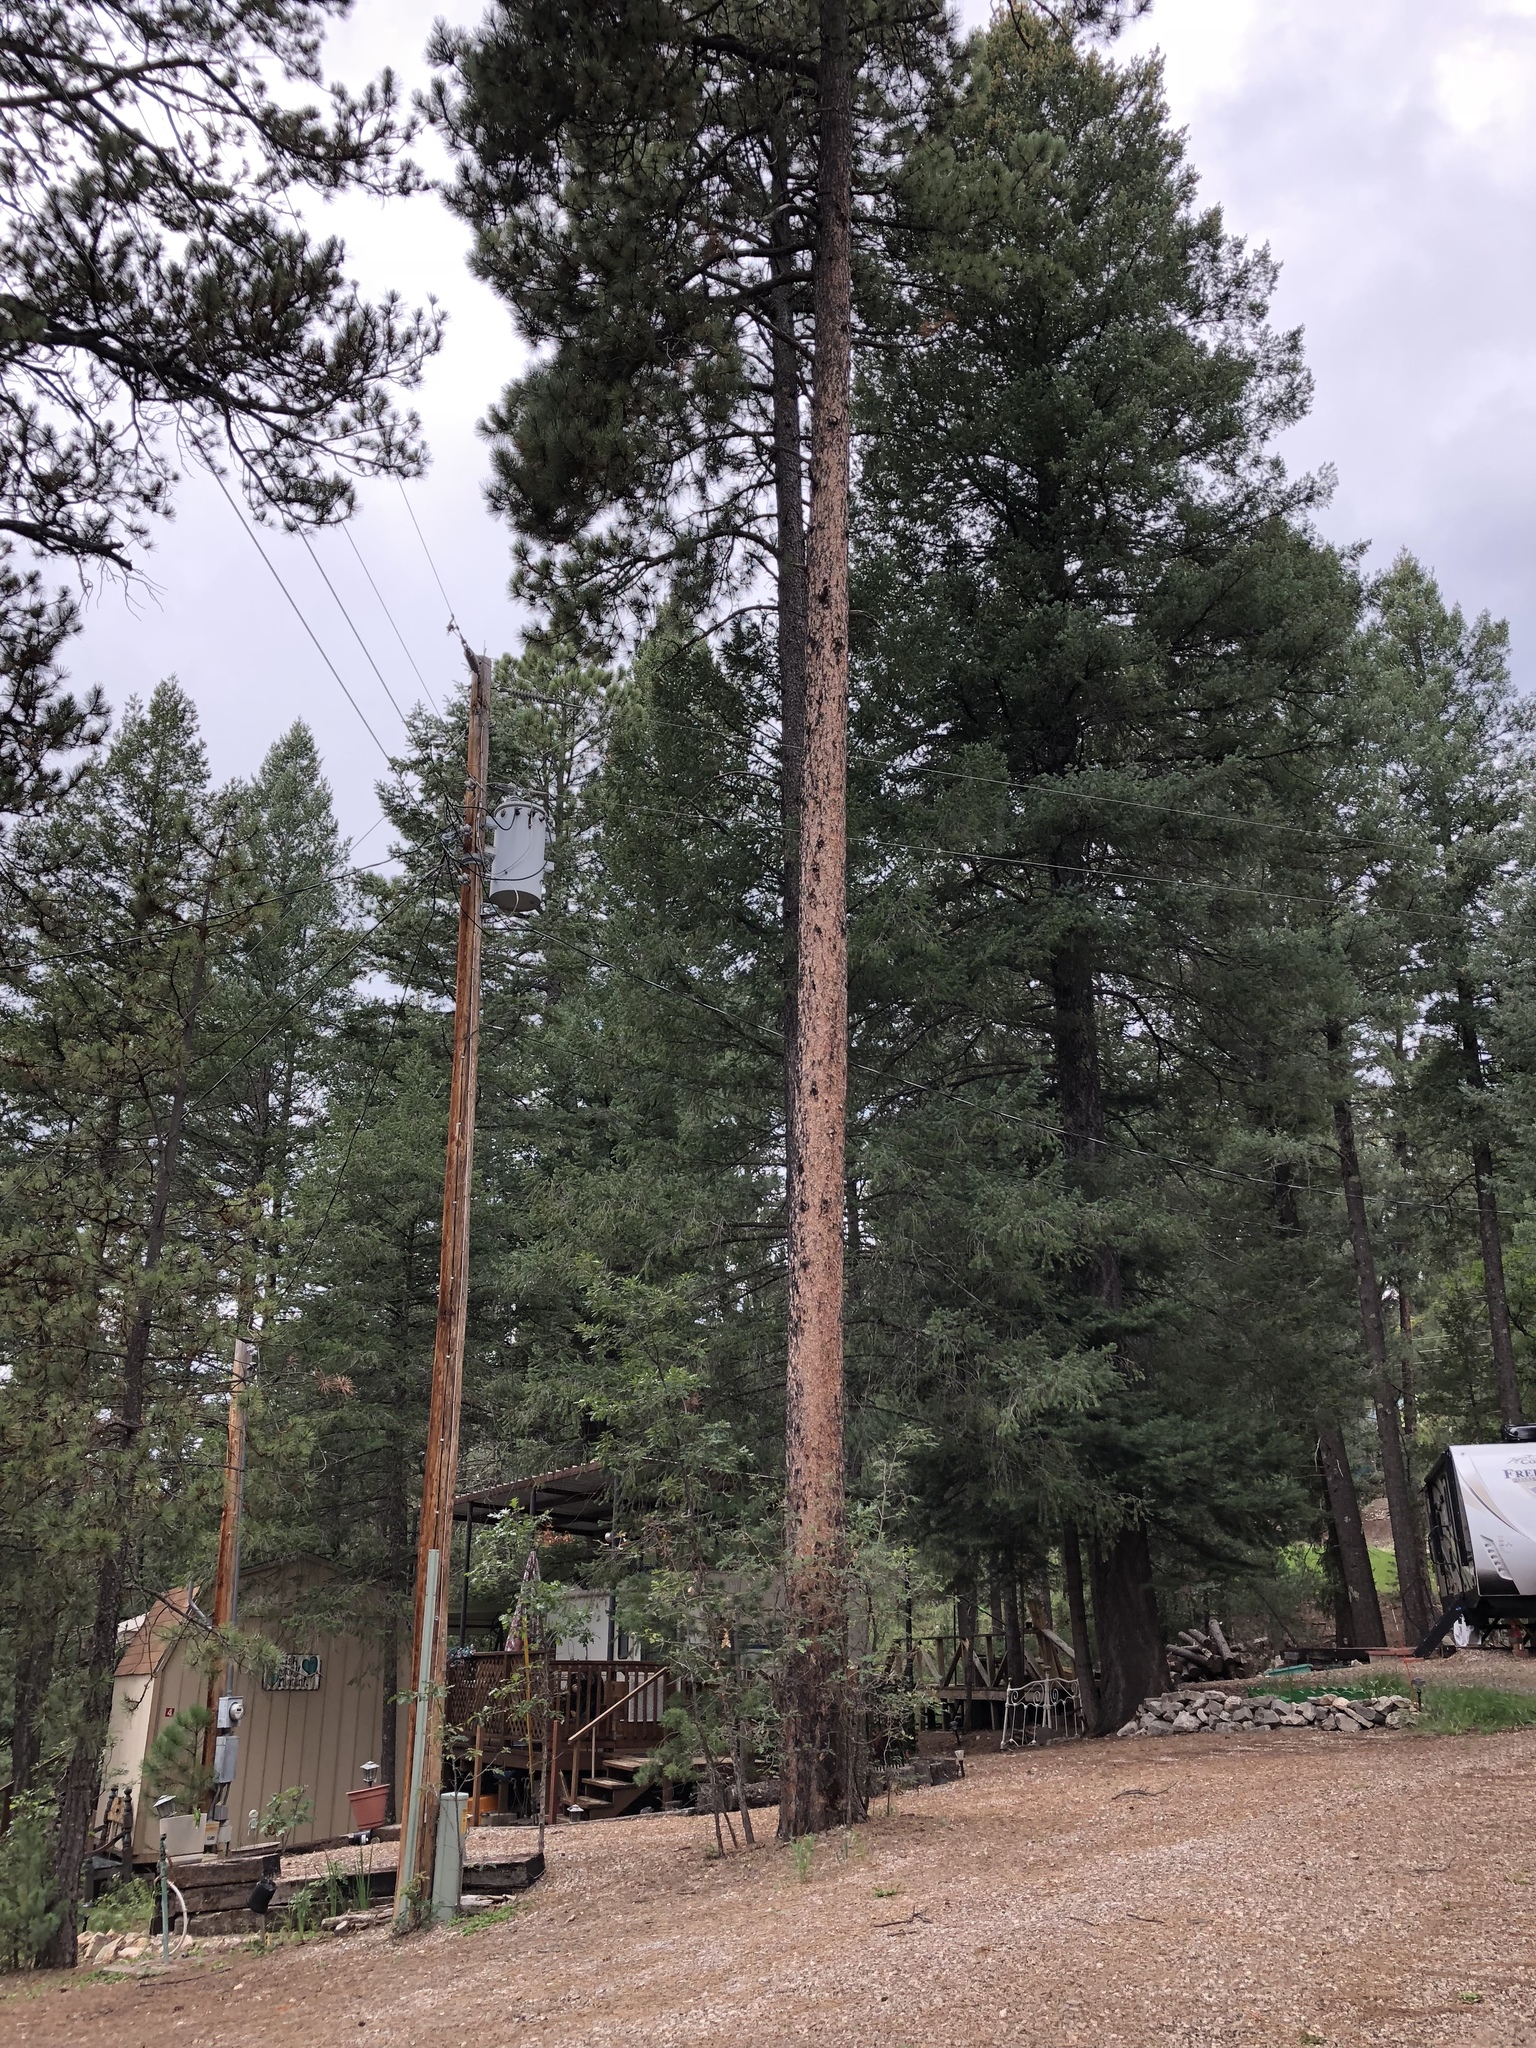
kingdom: Plantae
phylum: Tracheophyta
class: Pinopsida
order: Pinales
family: Pinaceae
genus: Pinus
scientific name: Pinus ponderosa
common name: Western yellow-pine
